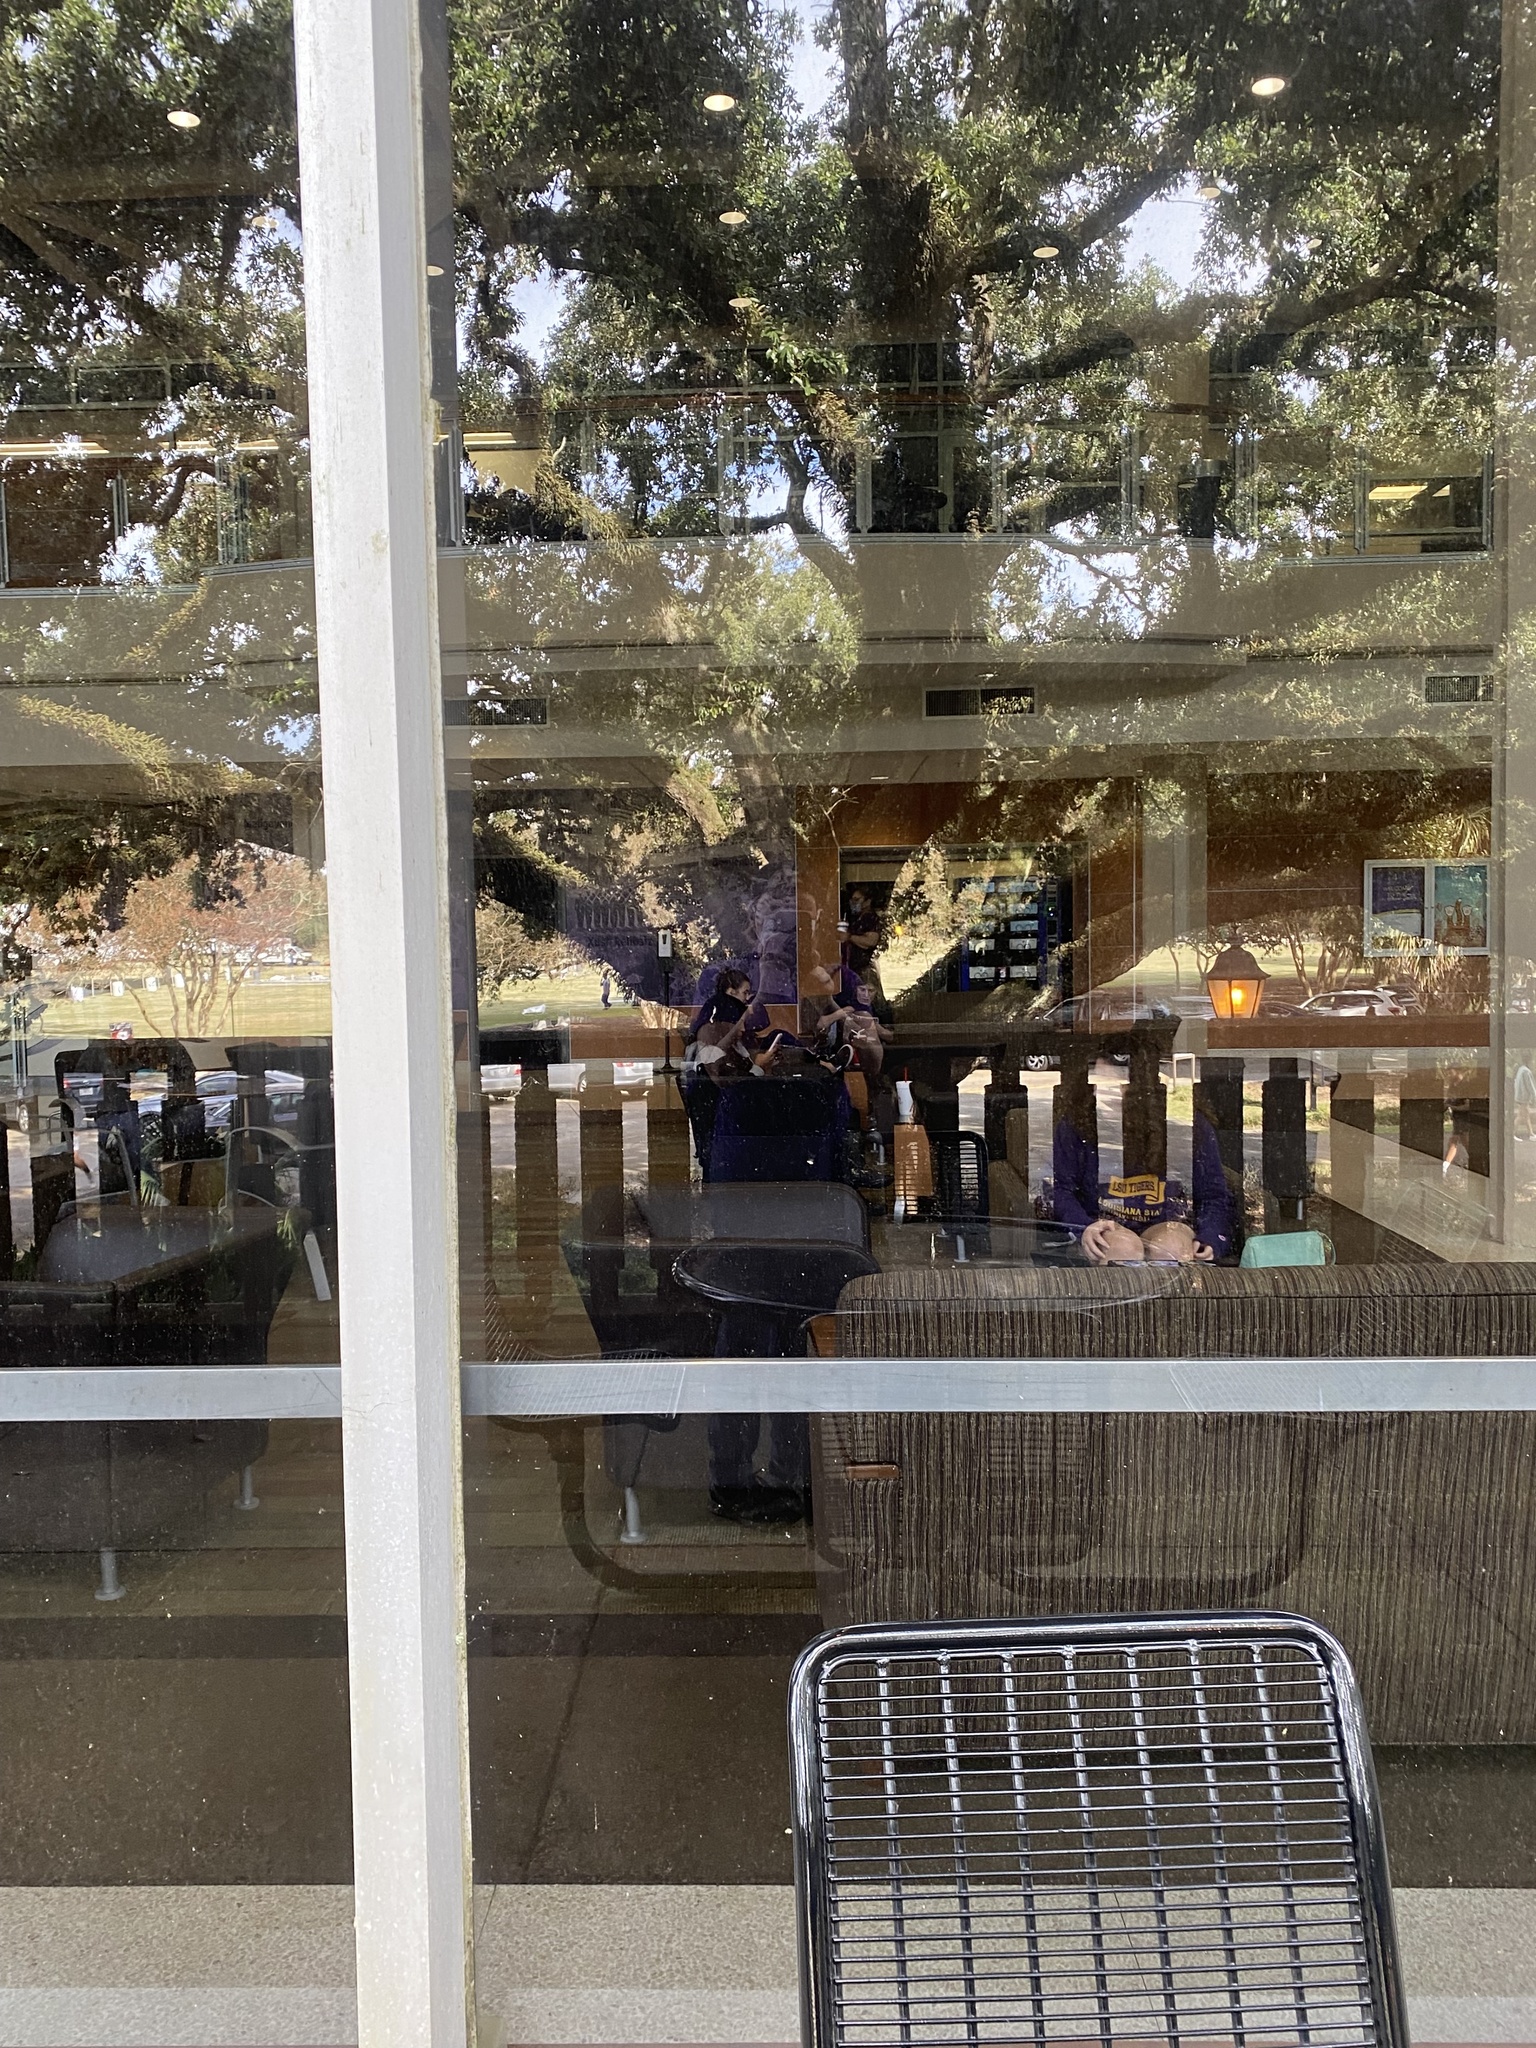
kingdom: Animalia
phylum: Chordata
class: Aves
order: Passeriformes
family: Passeridae
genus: Passer
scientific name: Passer domesticus
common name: House sparrow
